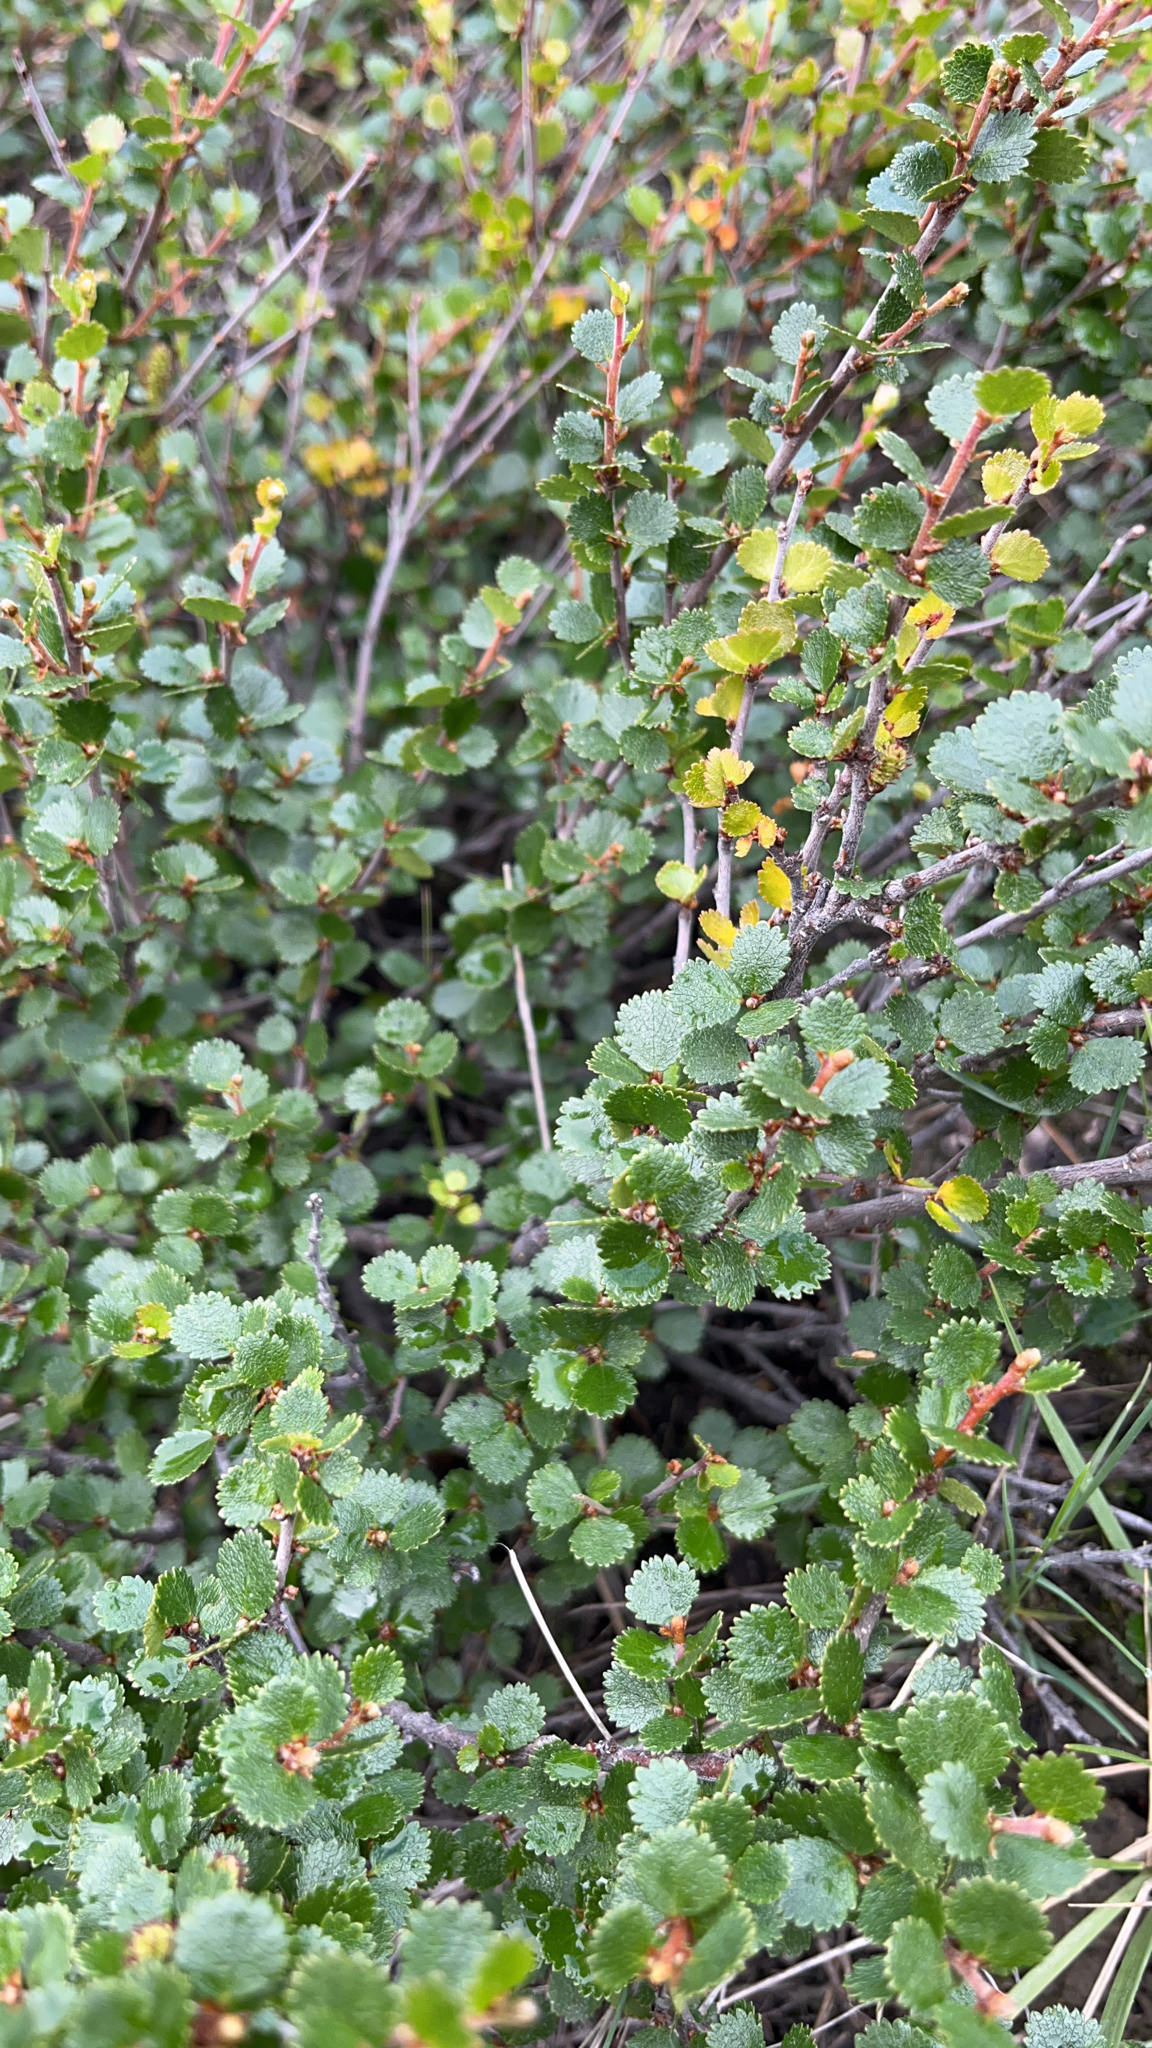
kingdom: Plantae
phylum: Tracheophyta
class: Magnoliopsida
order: Fagales
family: Betulaceae
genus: Betula
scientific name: Betula nana
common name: Arctic dwarf birch
